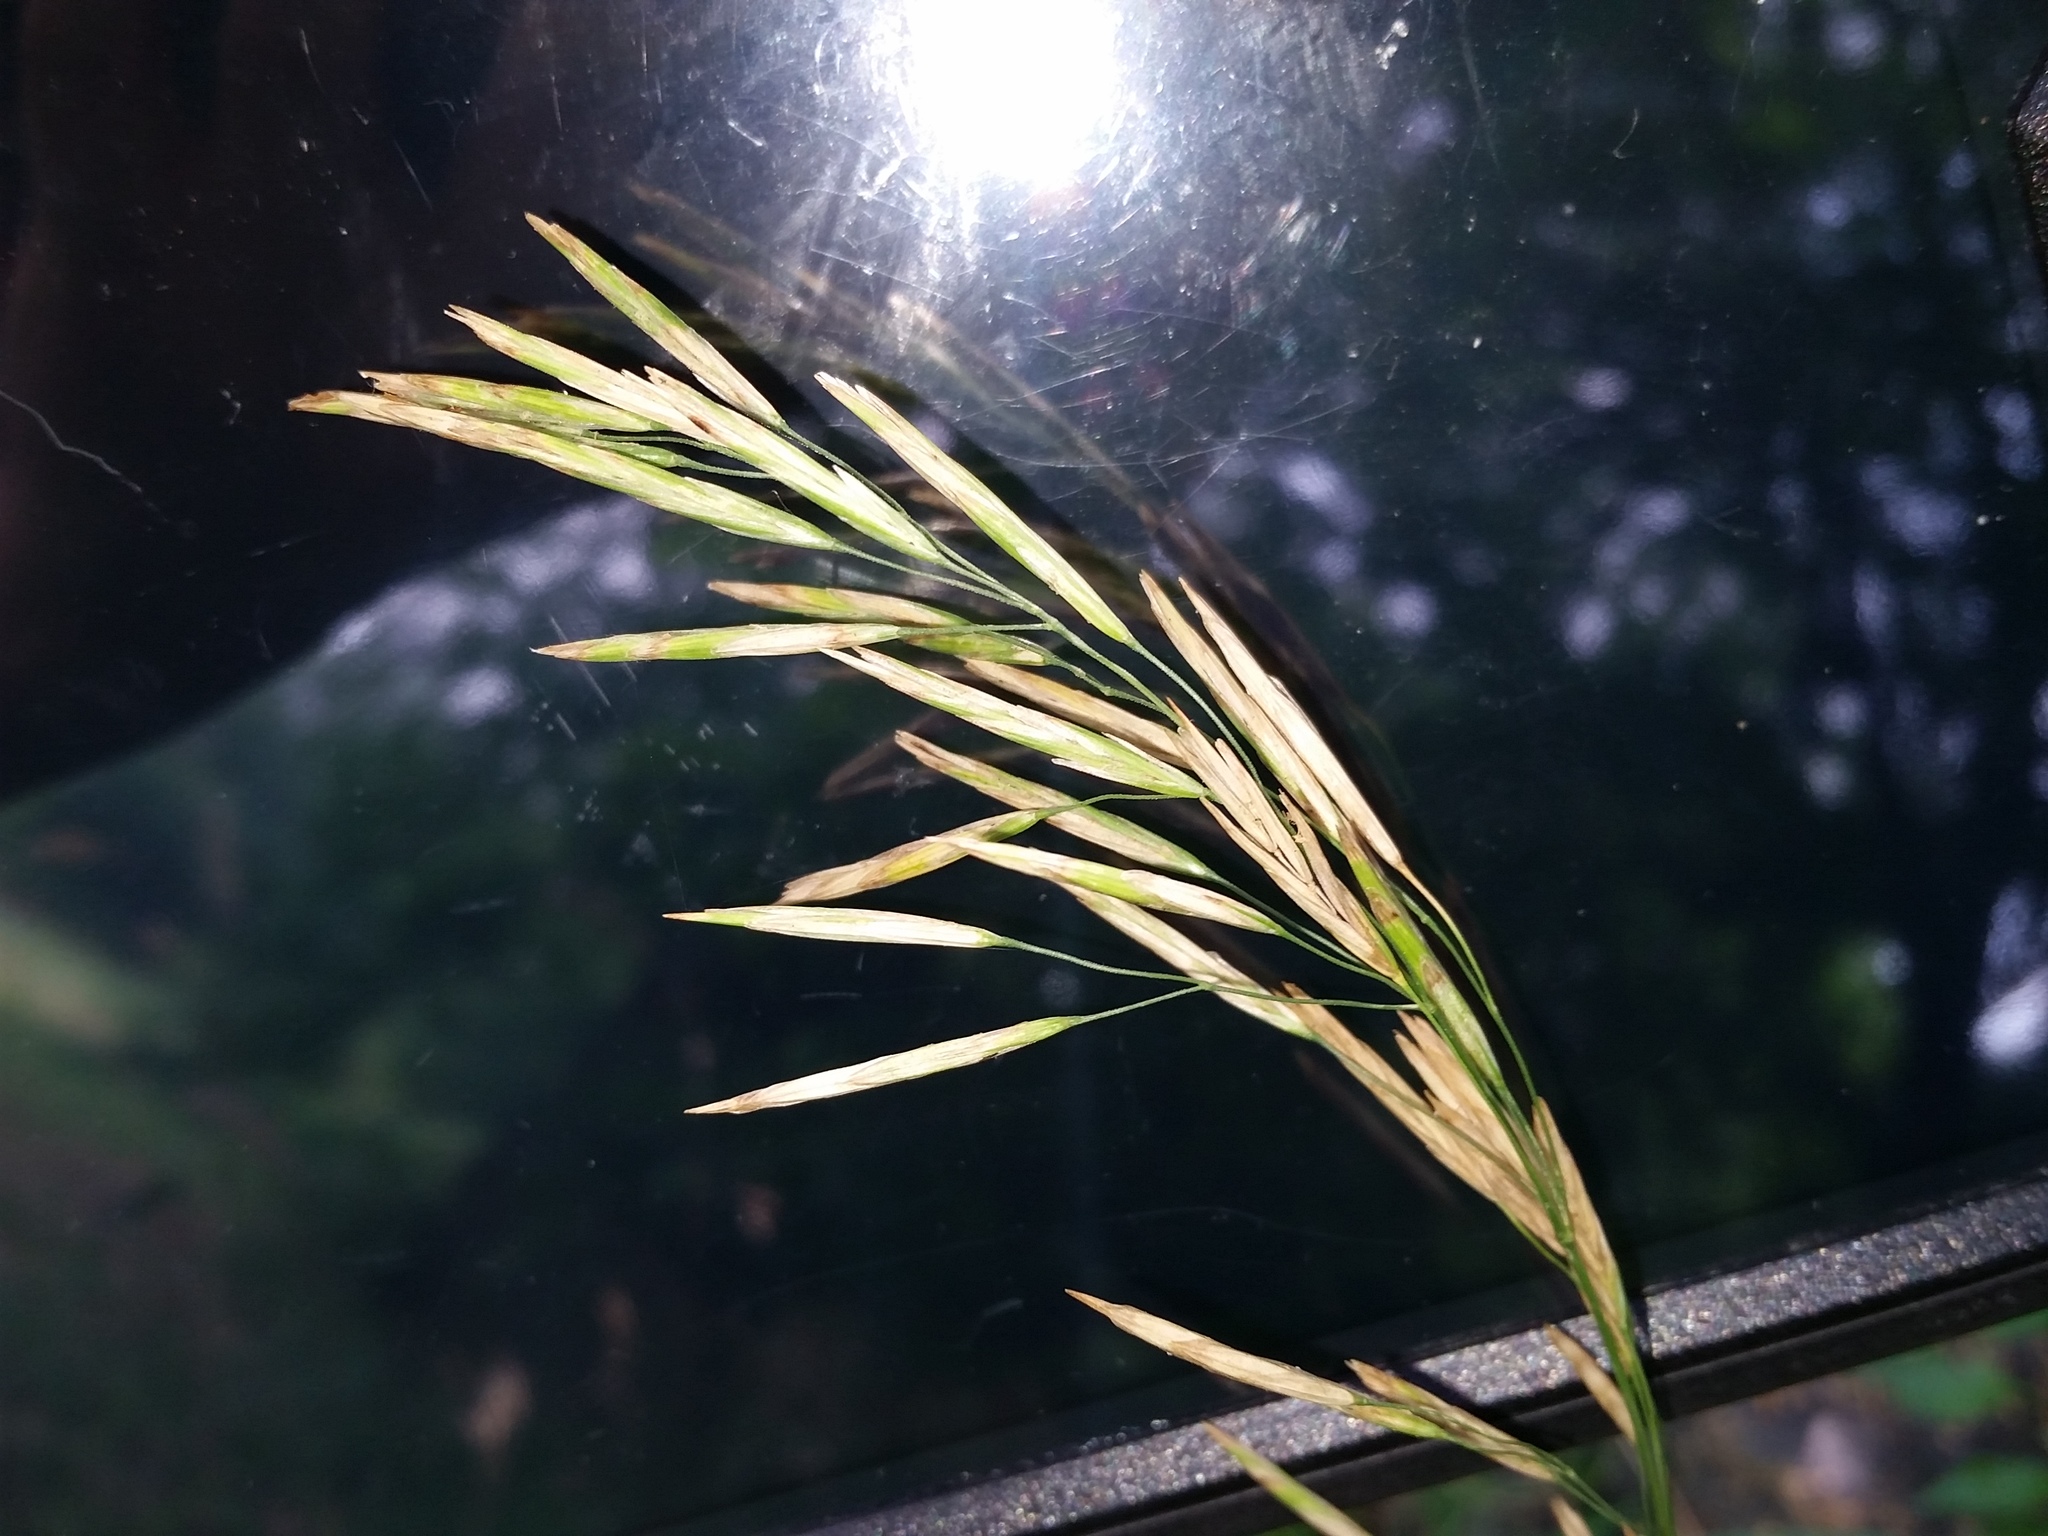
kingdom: Plantae
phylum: Tracheophyta
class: Liliopsida
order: Poales
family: Poaceae
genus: Bromus
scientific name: Bromus inermis
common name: Smooth brome
